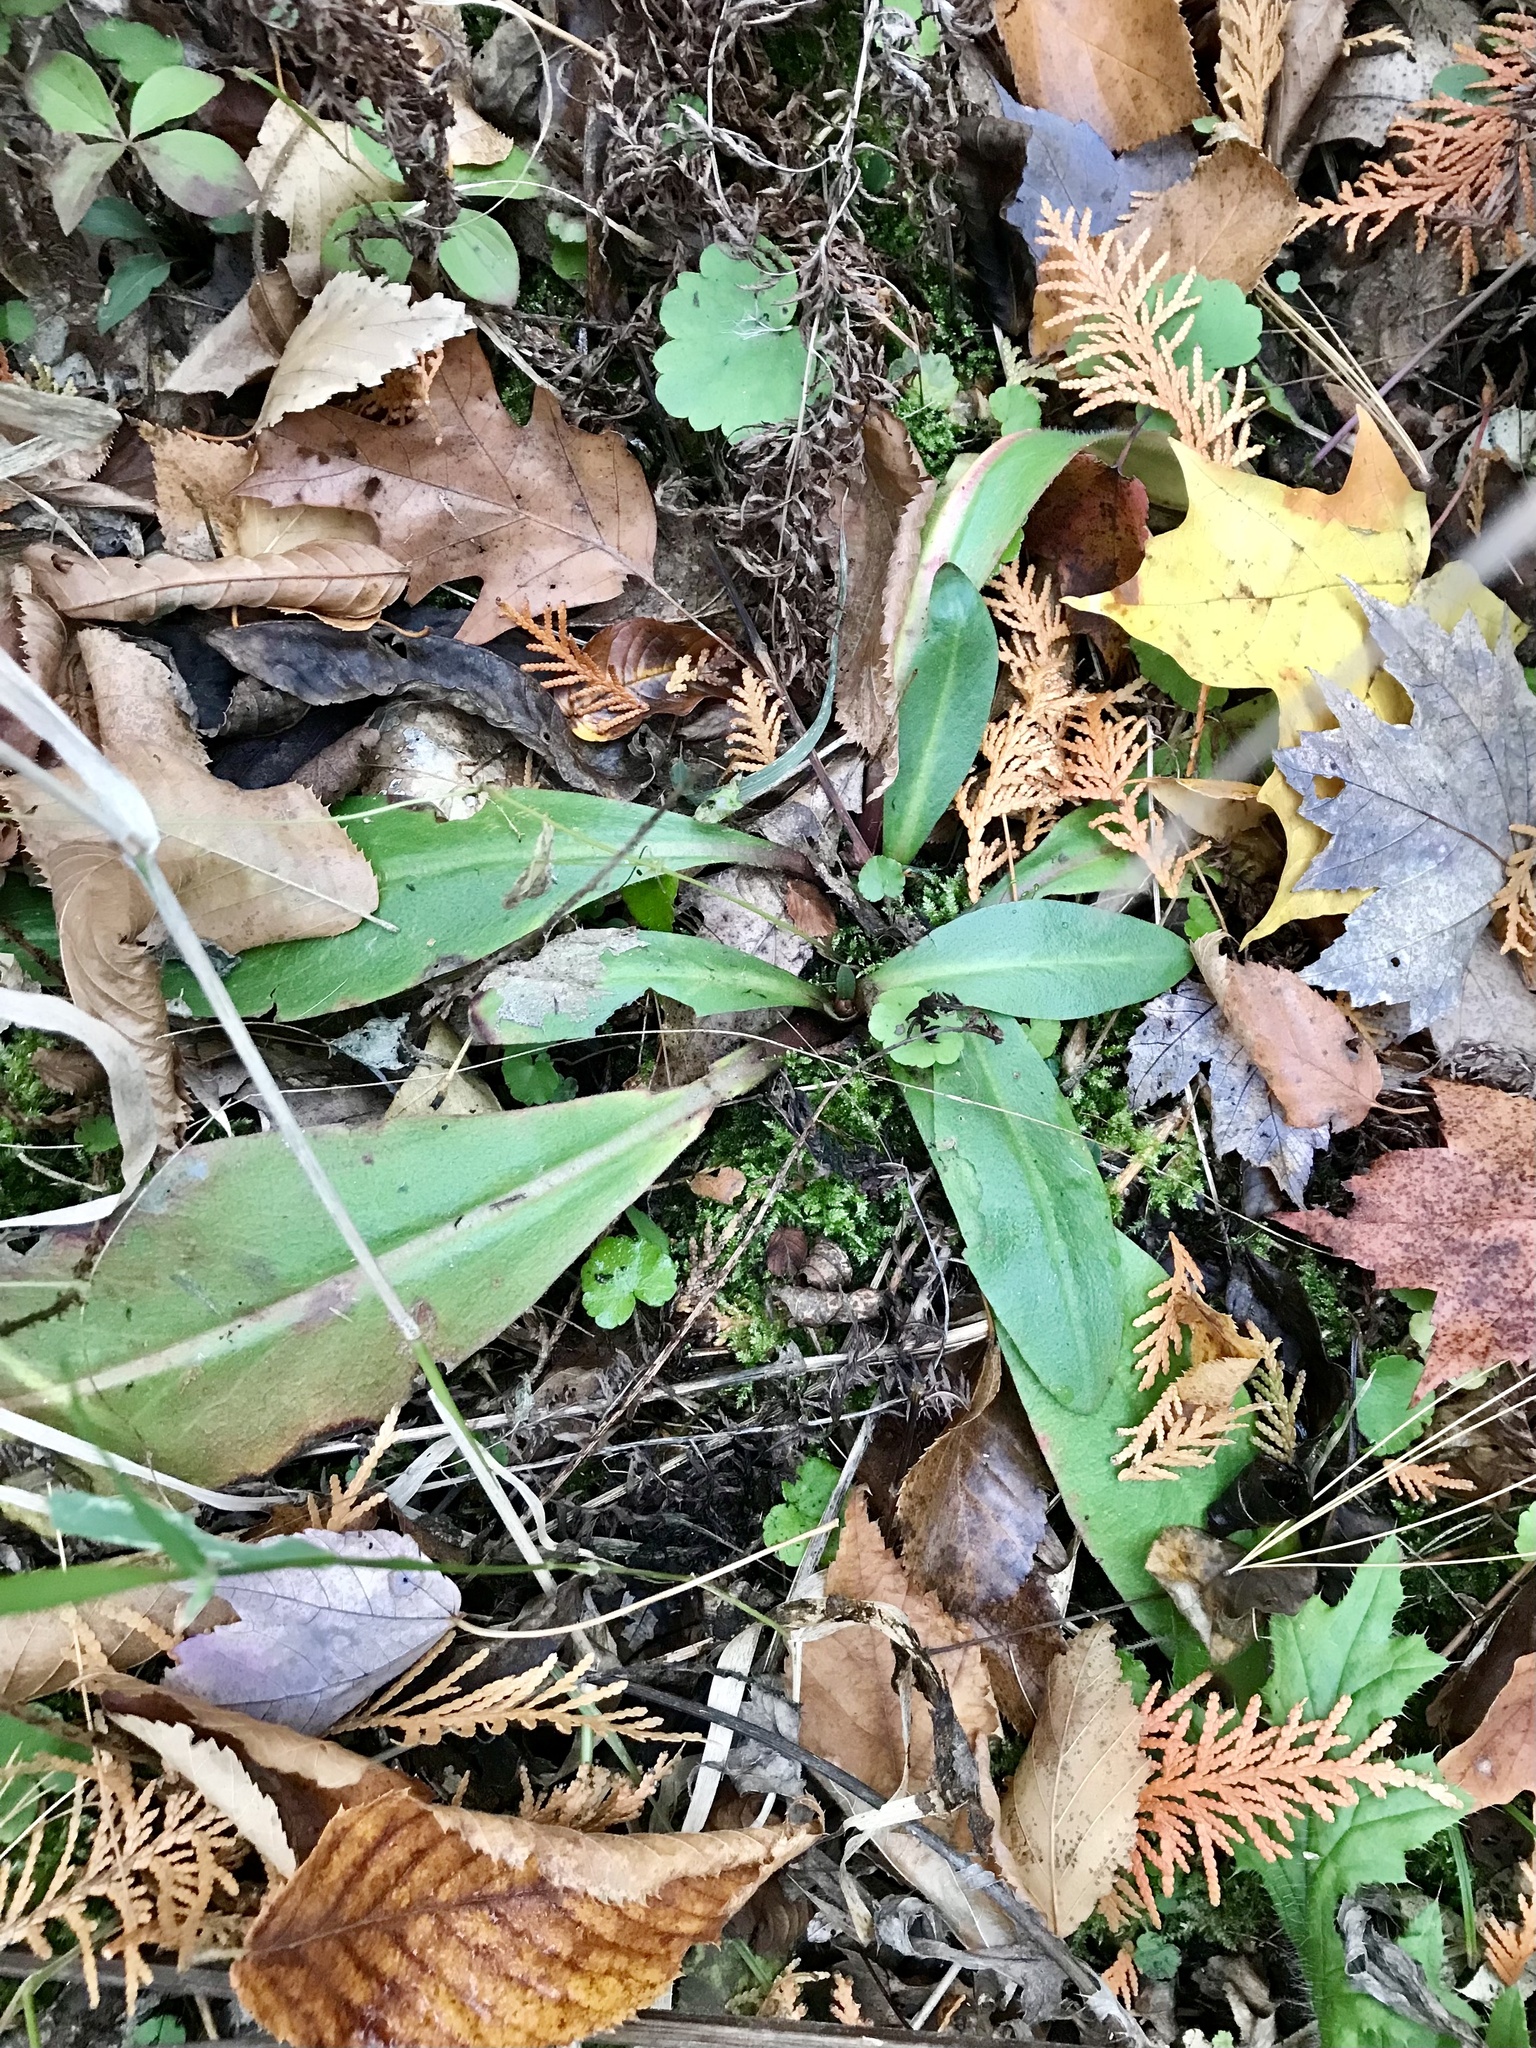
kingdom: Plantae
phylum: Tracheophyta
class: Magnoliopsida
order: Saxifragales
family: Saxifragaceae
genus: Micranthes
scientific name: Micranthes pensylvanica
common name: Marsh saxifrage
